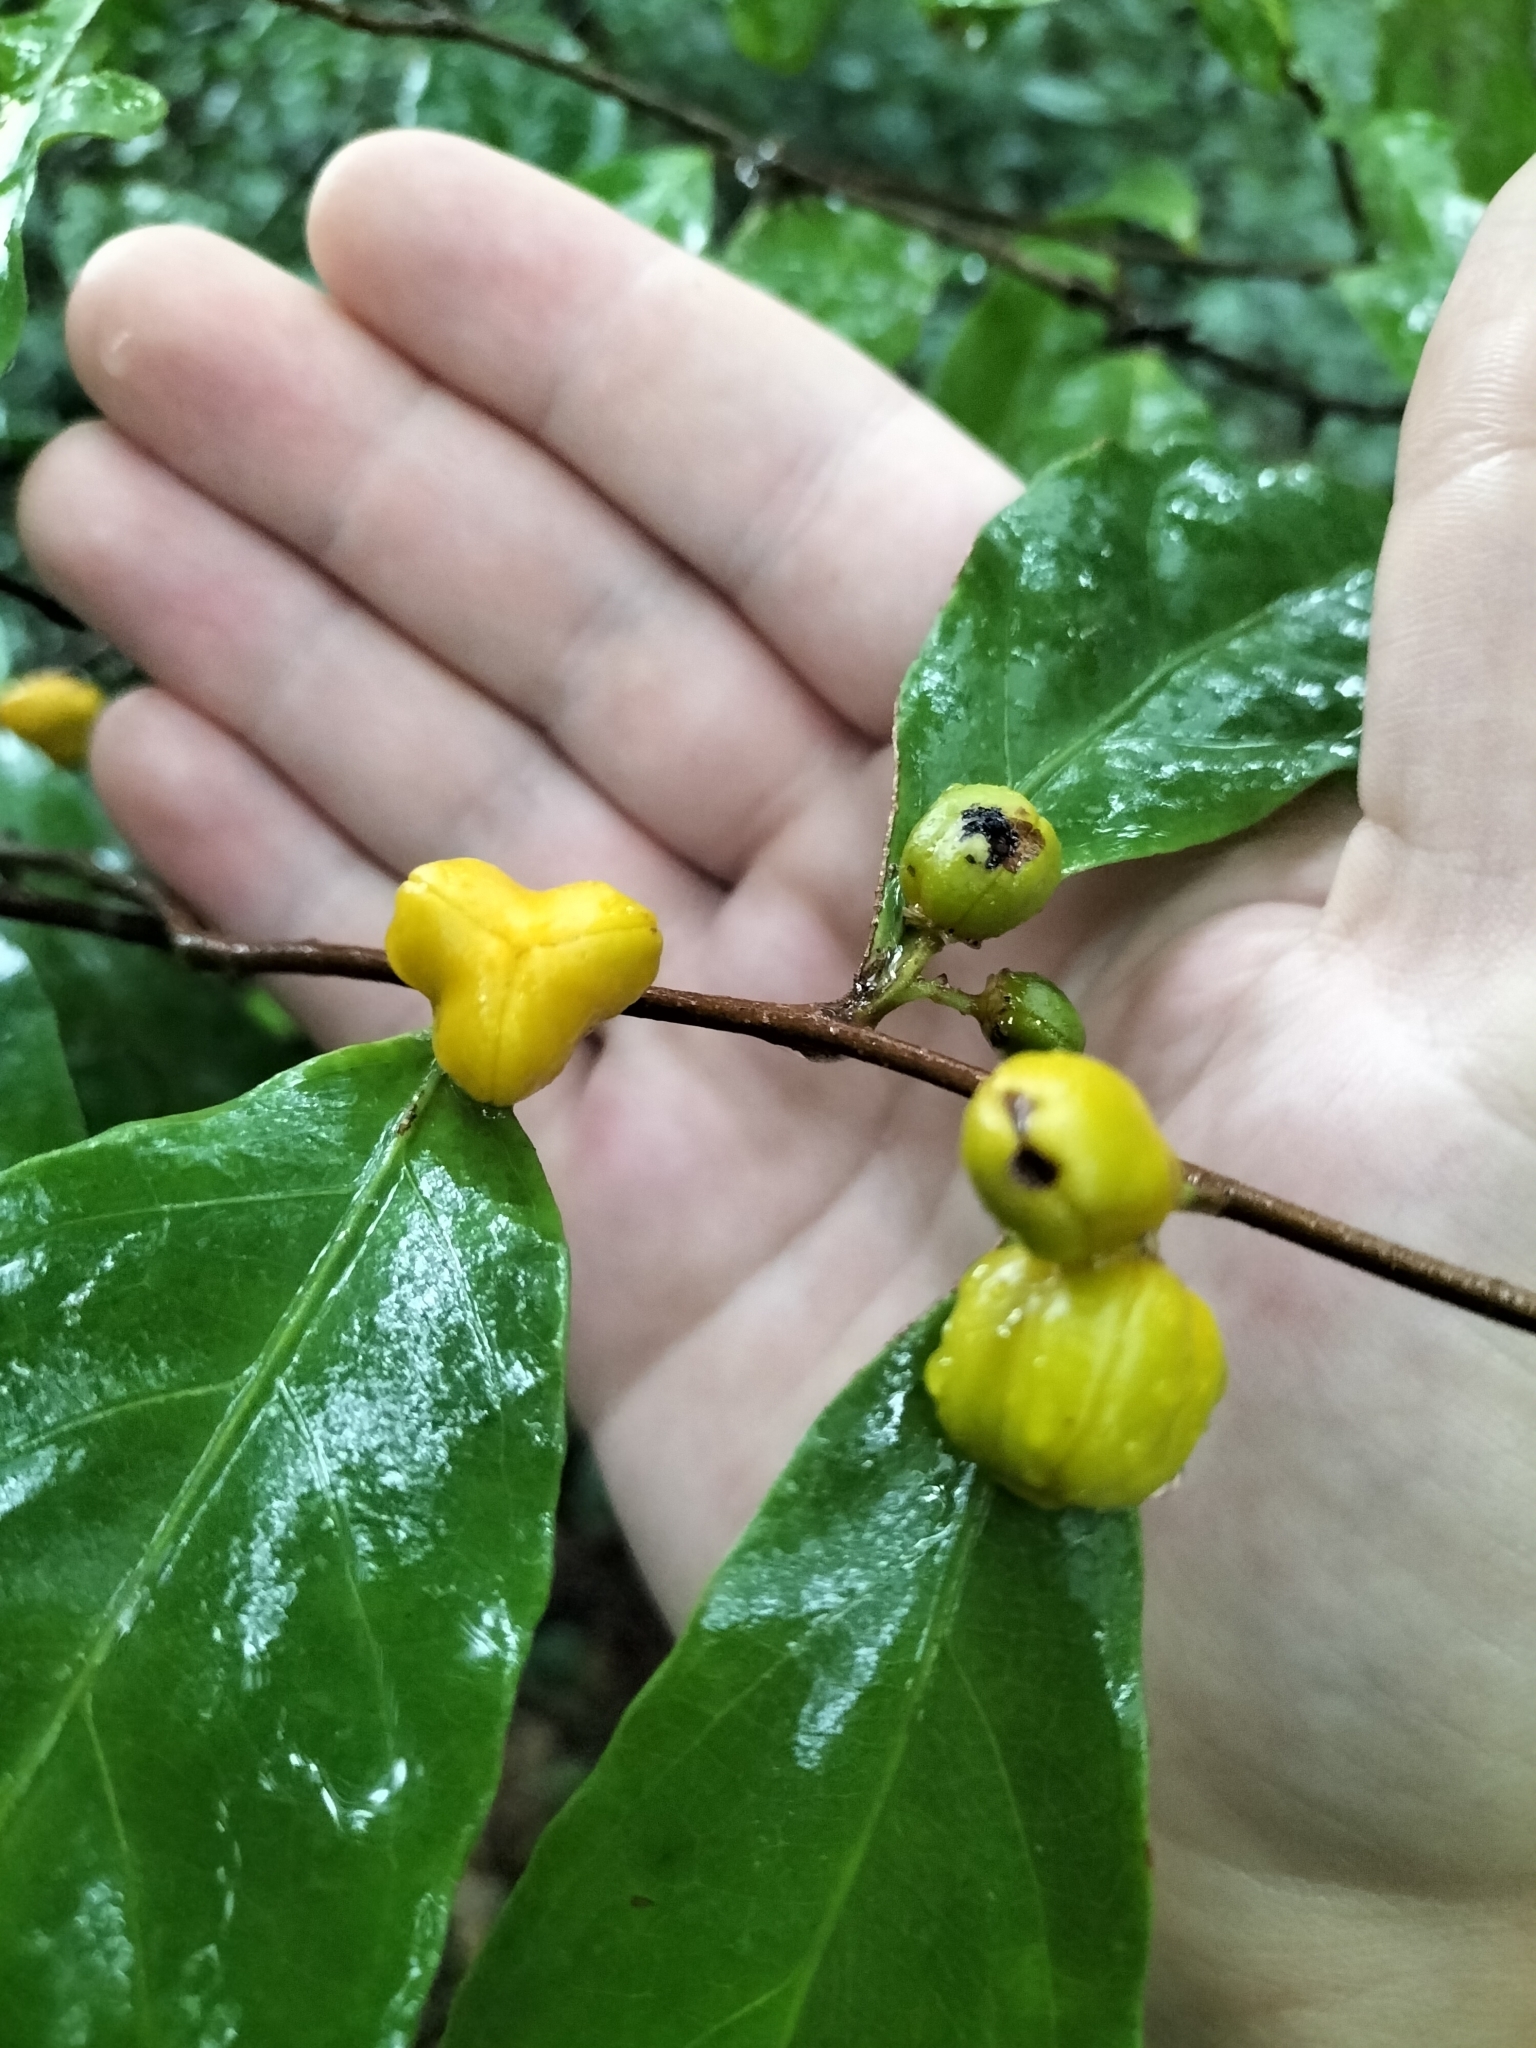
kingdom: Plantae
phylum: Tracheophyta
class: Magnoliopsida
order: Malpighiales
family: Dichapetalaceae
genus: Dichapetalum
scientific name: Dichapetalum papuanum
